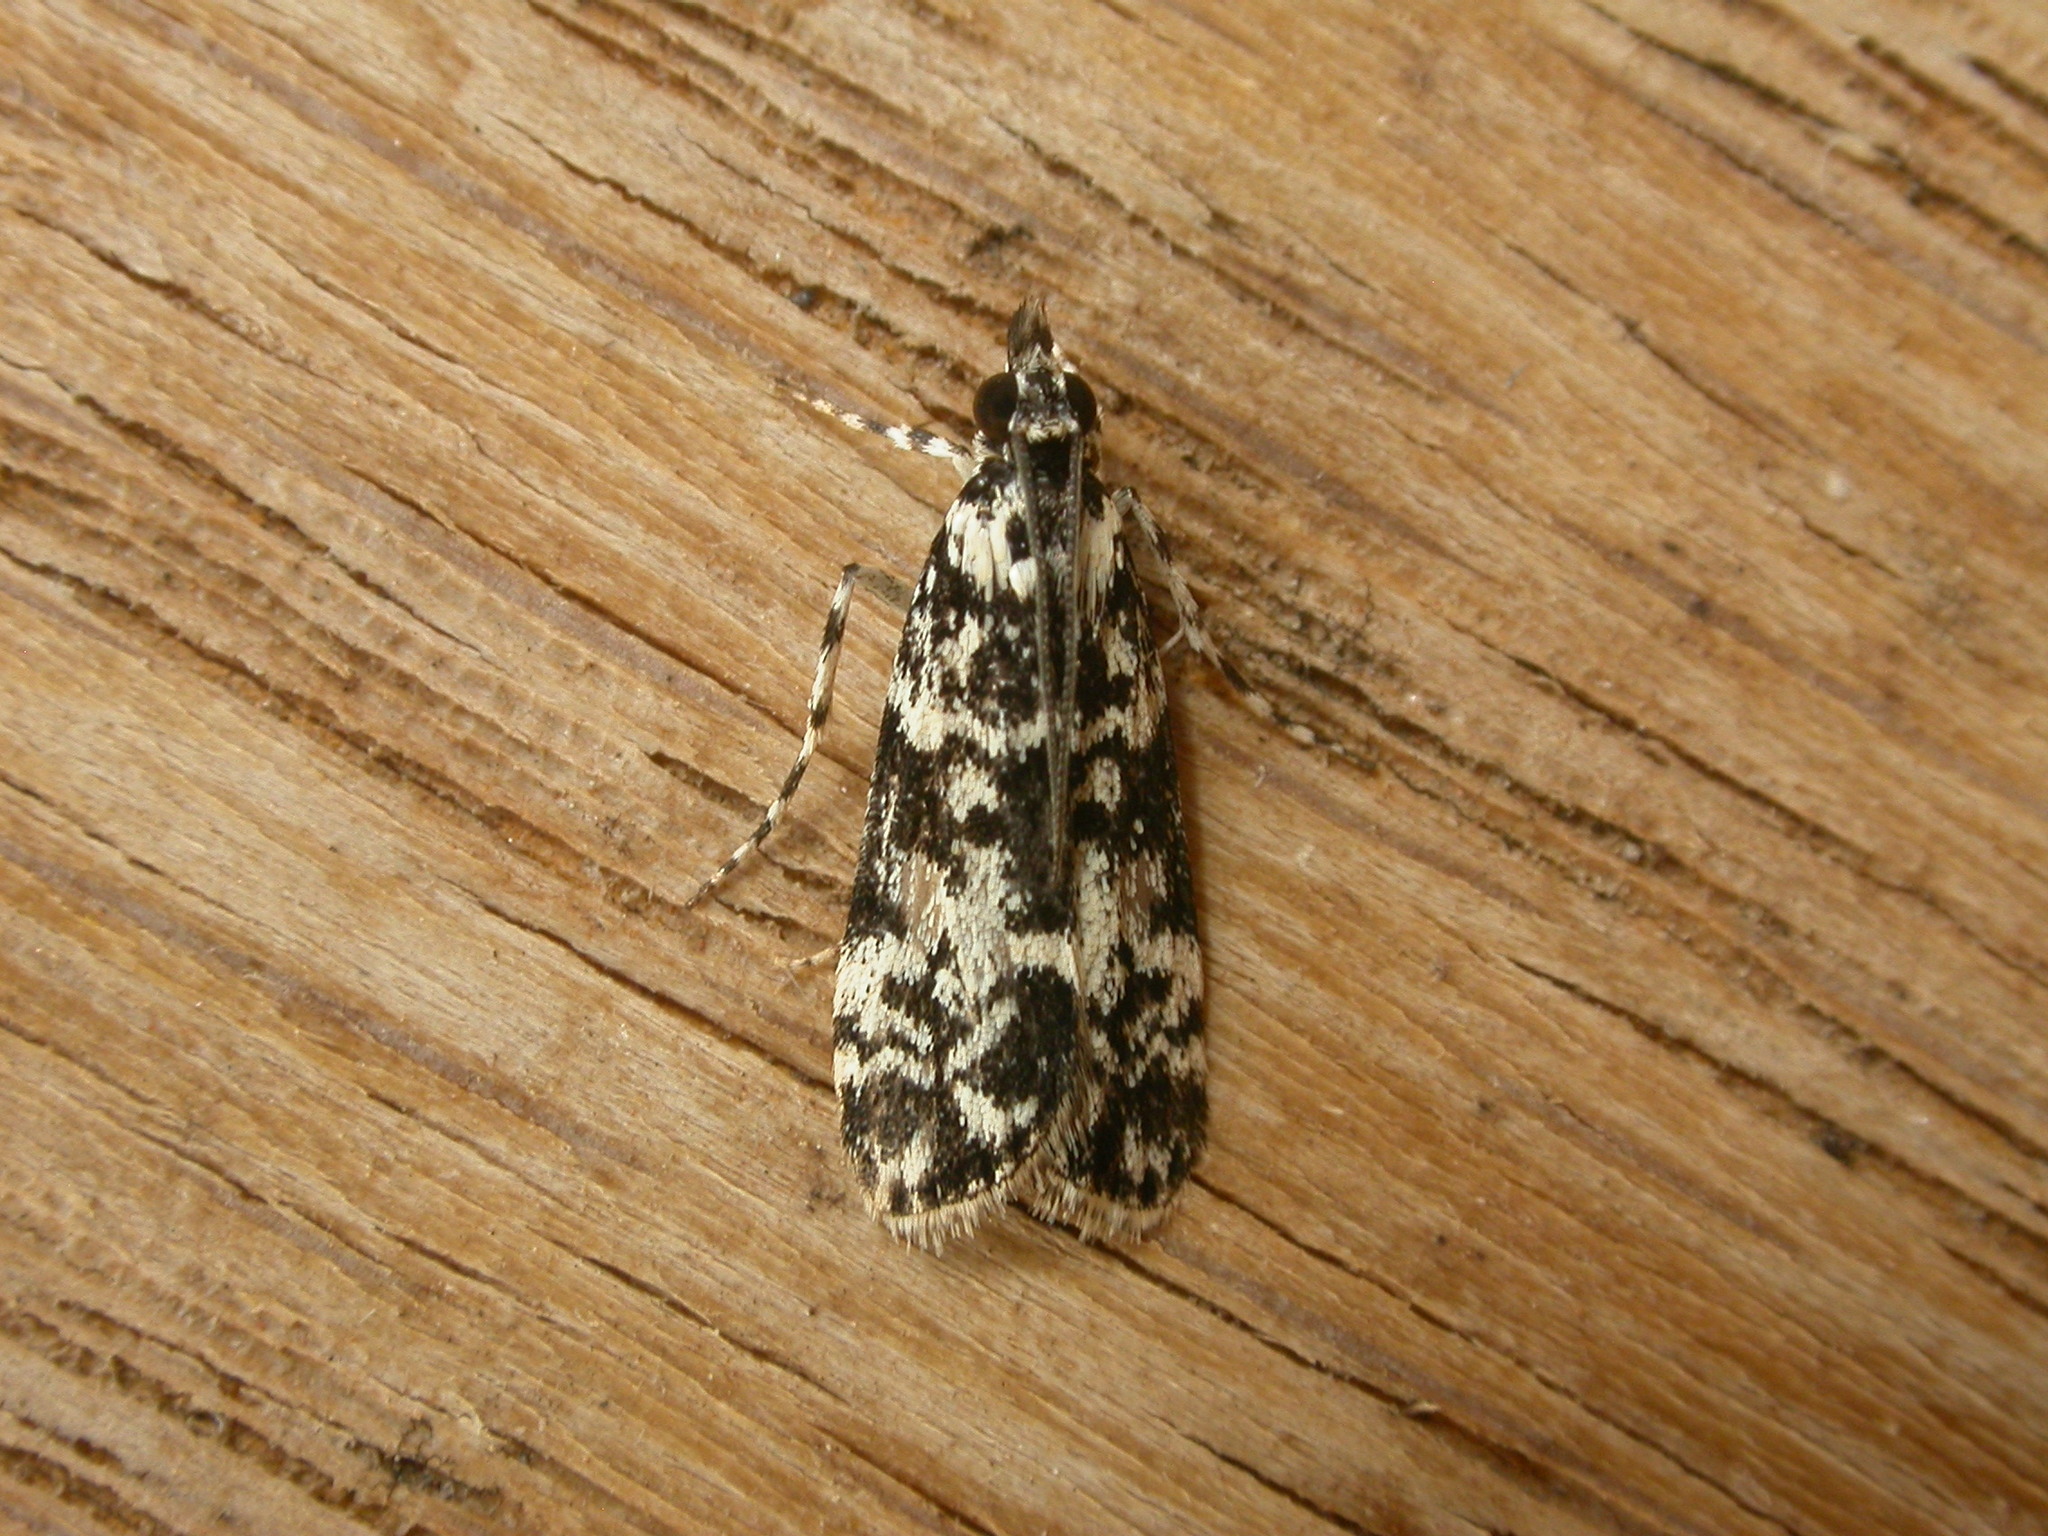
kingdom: Animalia
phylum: Arthropoda
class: Insecta
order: Lepidoptera
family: Crambidae
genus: Scoparia
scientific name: Scoparia exhibitalis
